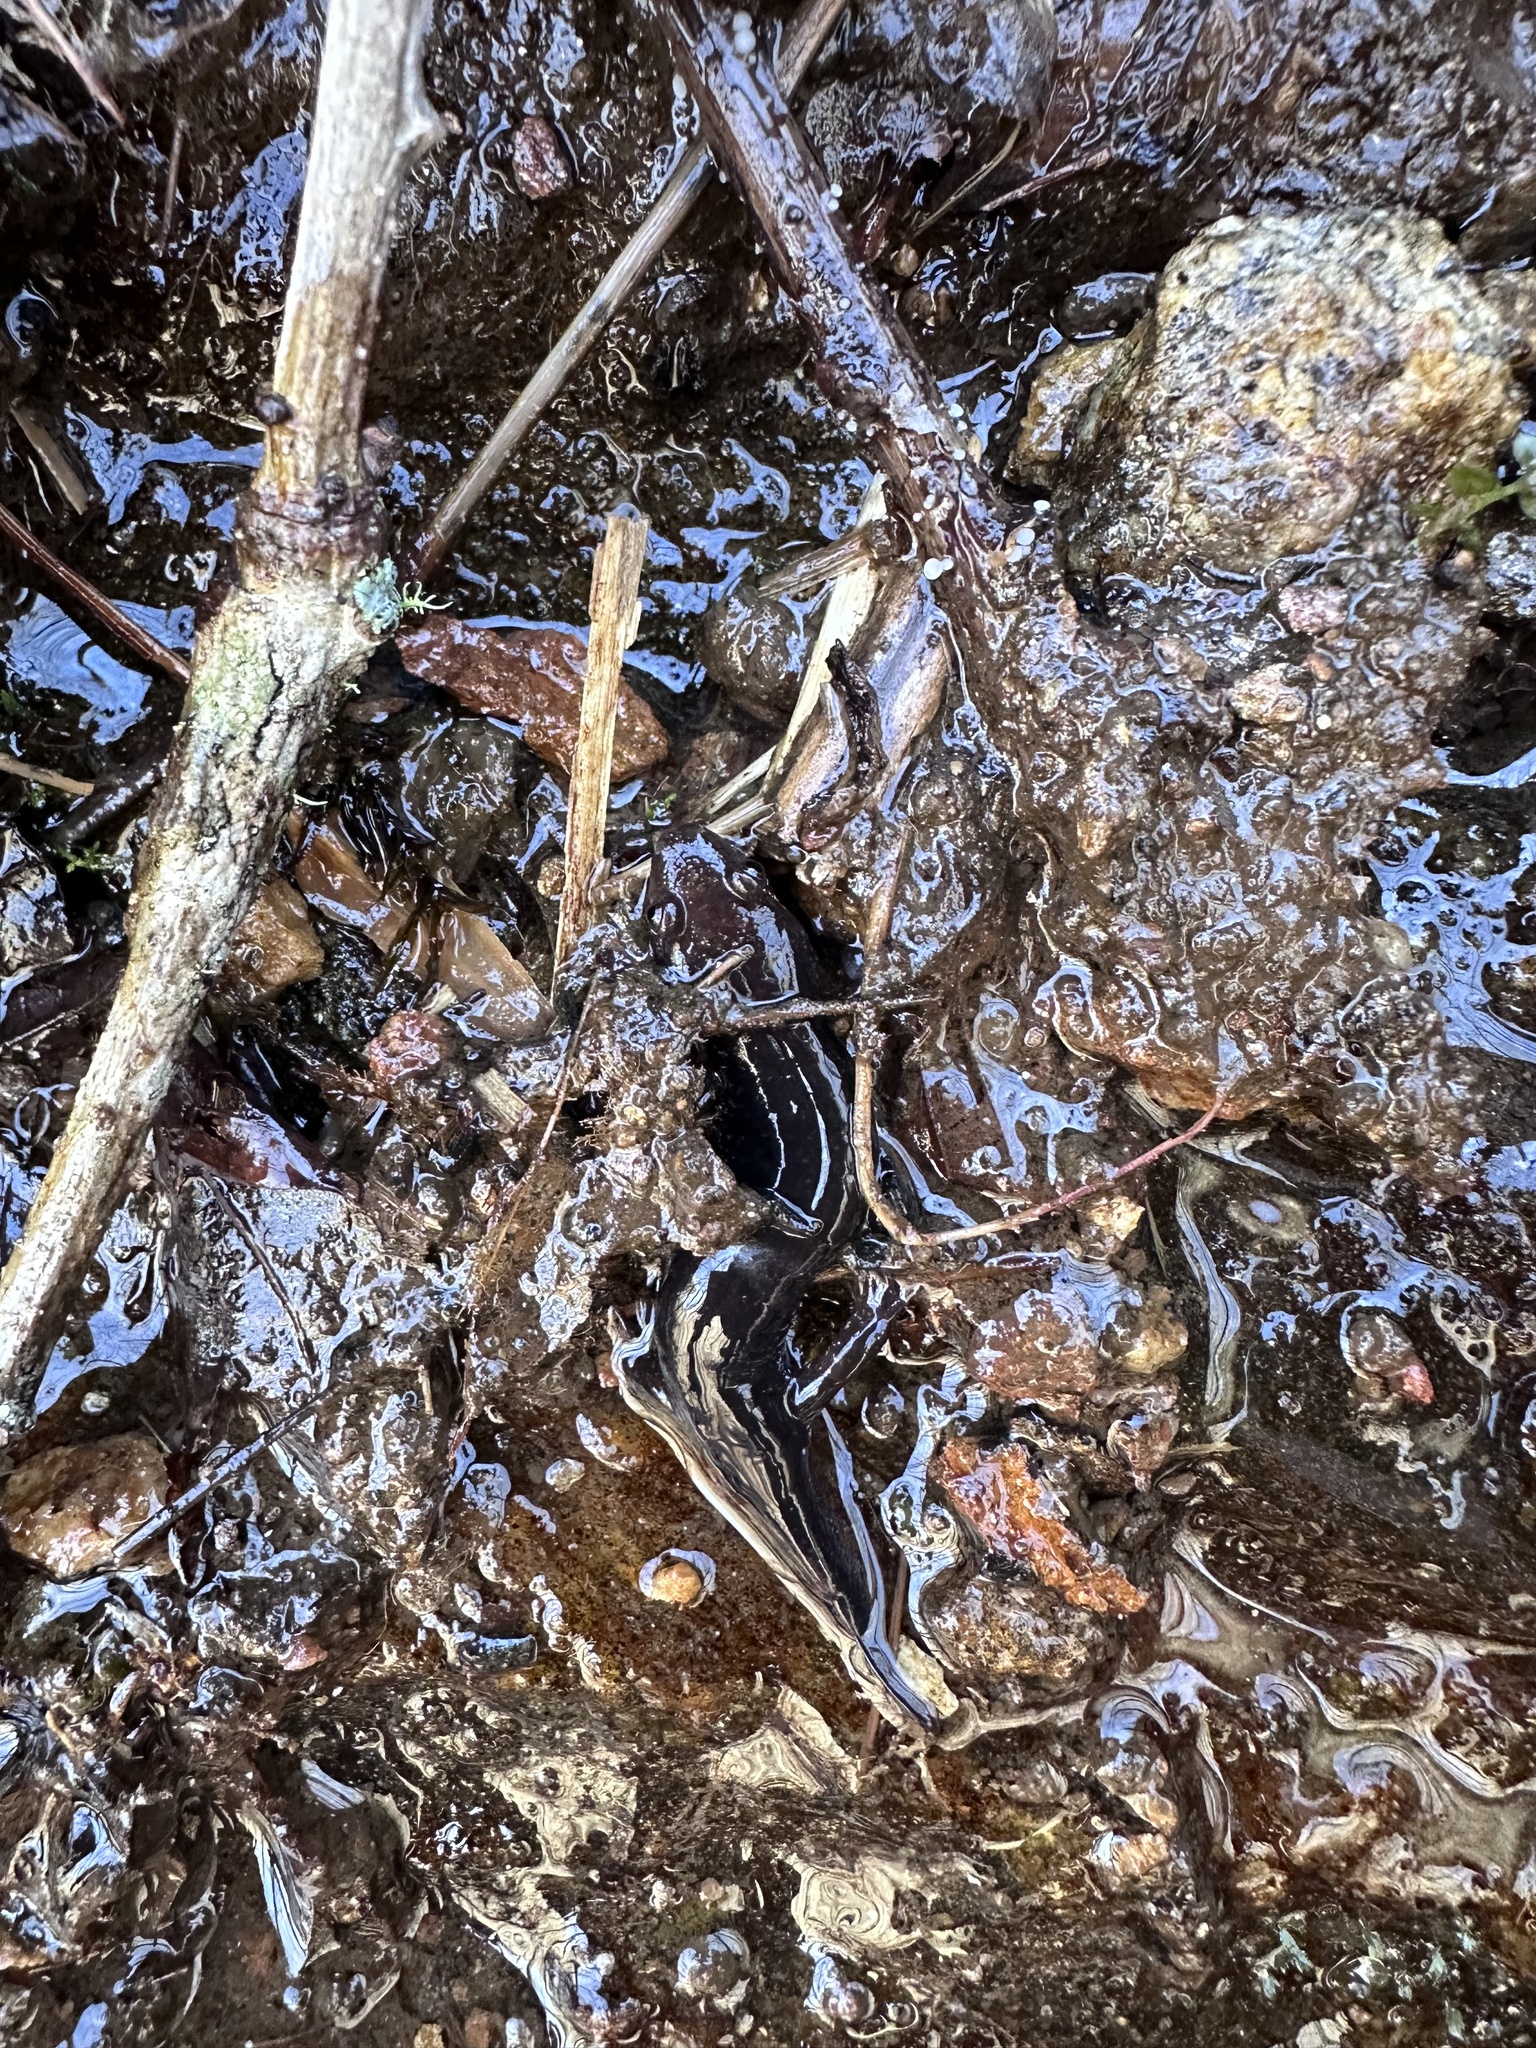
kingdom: Animalia
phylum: Chordata
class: Amphibia
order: Caudata
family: Plethodontidae
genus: Desmognathus
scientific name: Desmognathus ocoee
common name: Ocoee salamander
